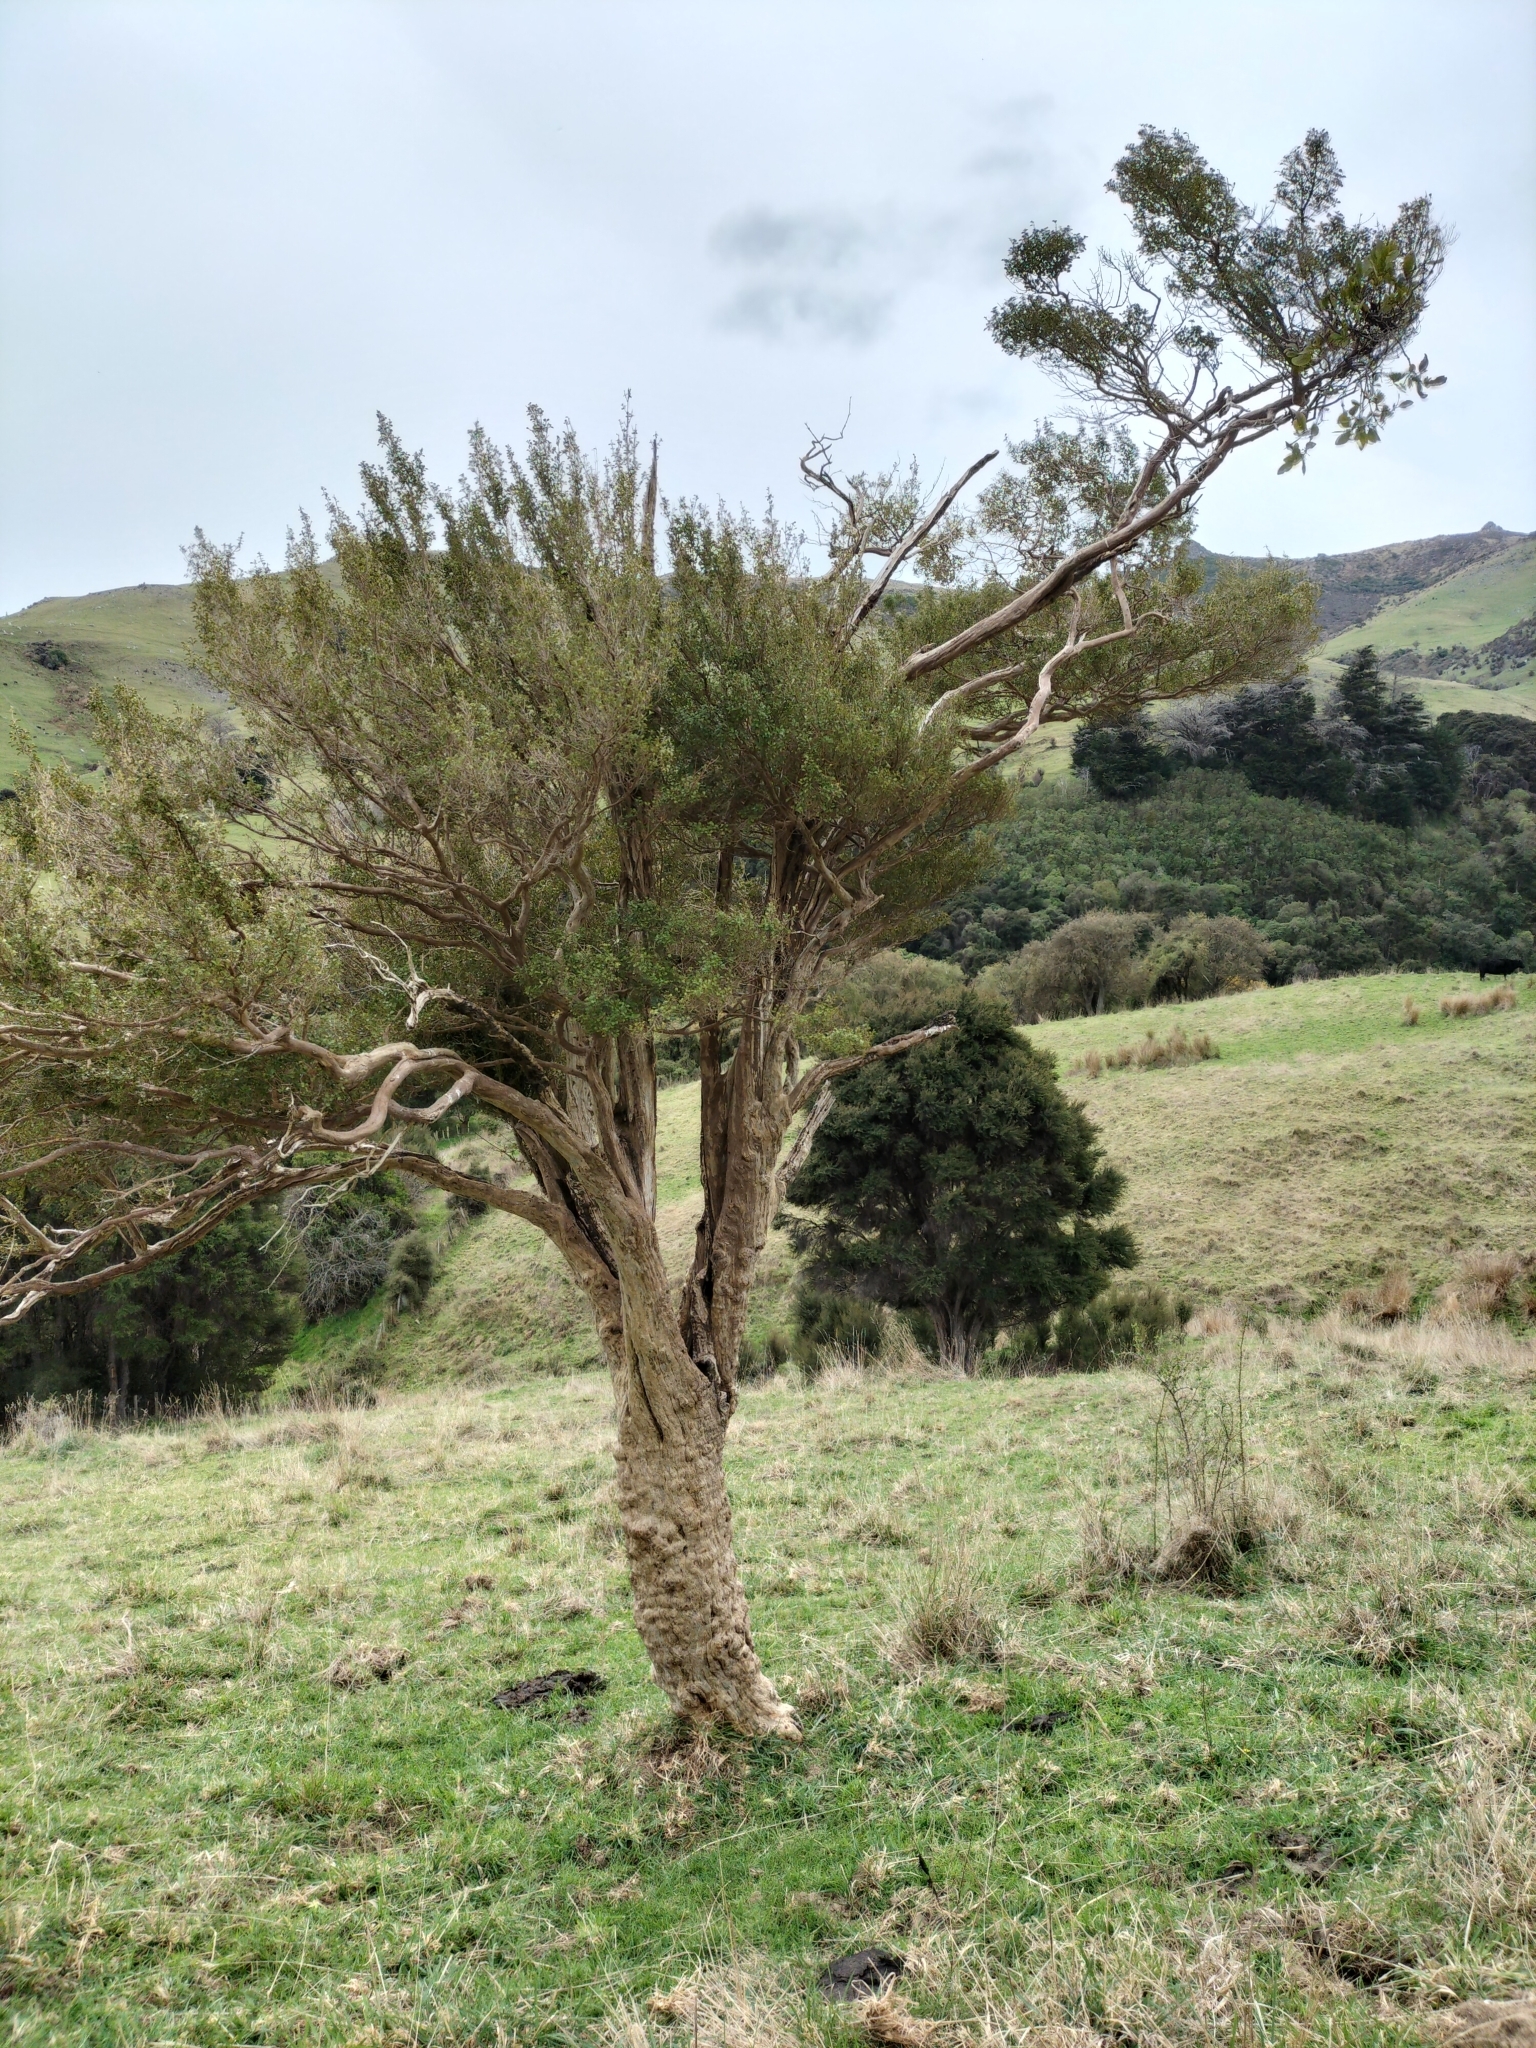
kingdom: Plantae
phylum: Tracheophyta
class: Magnoliopsida
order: Myrtales
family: Myrtaceae
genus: Lophomyrtus
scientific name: Lophomyrtus obcordata
